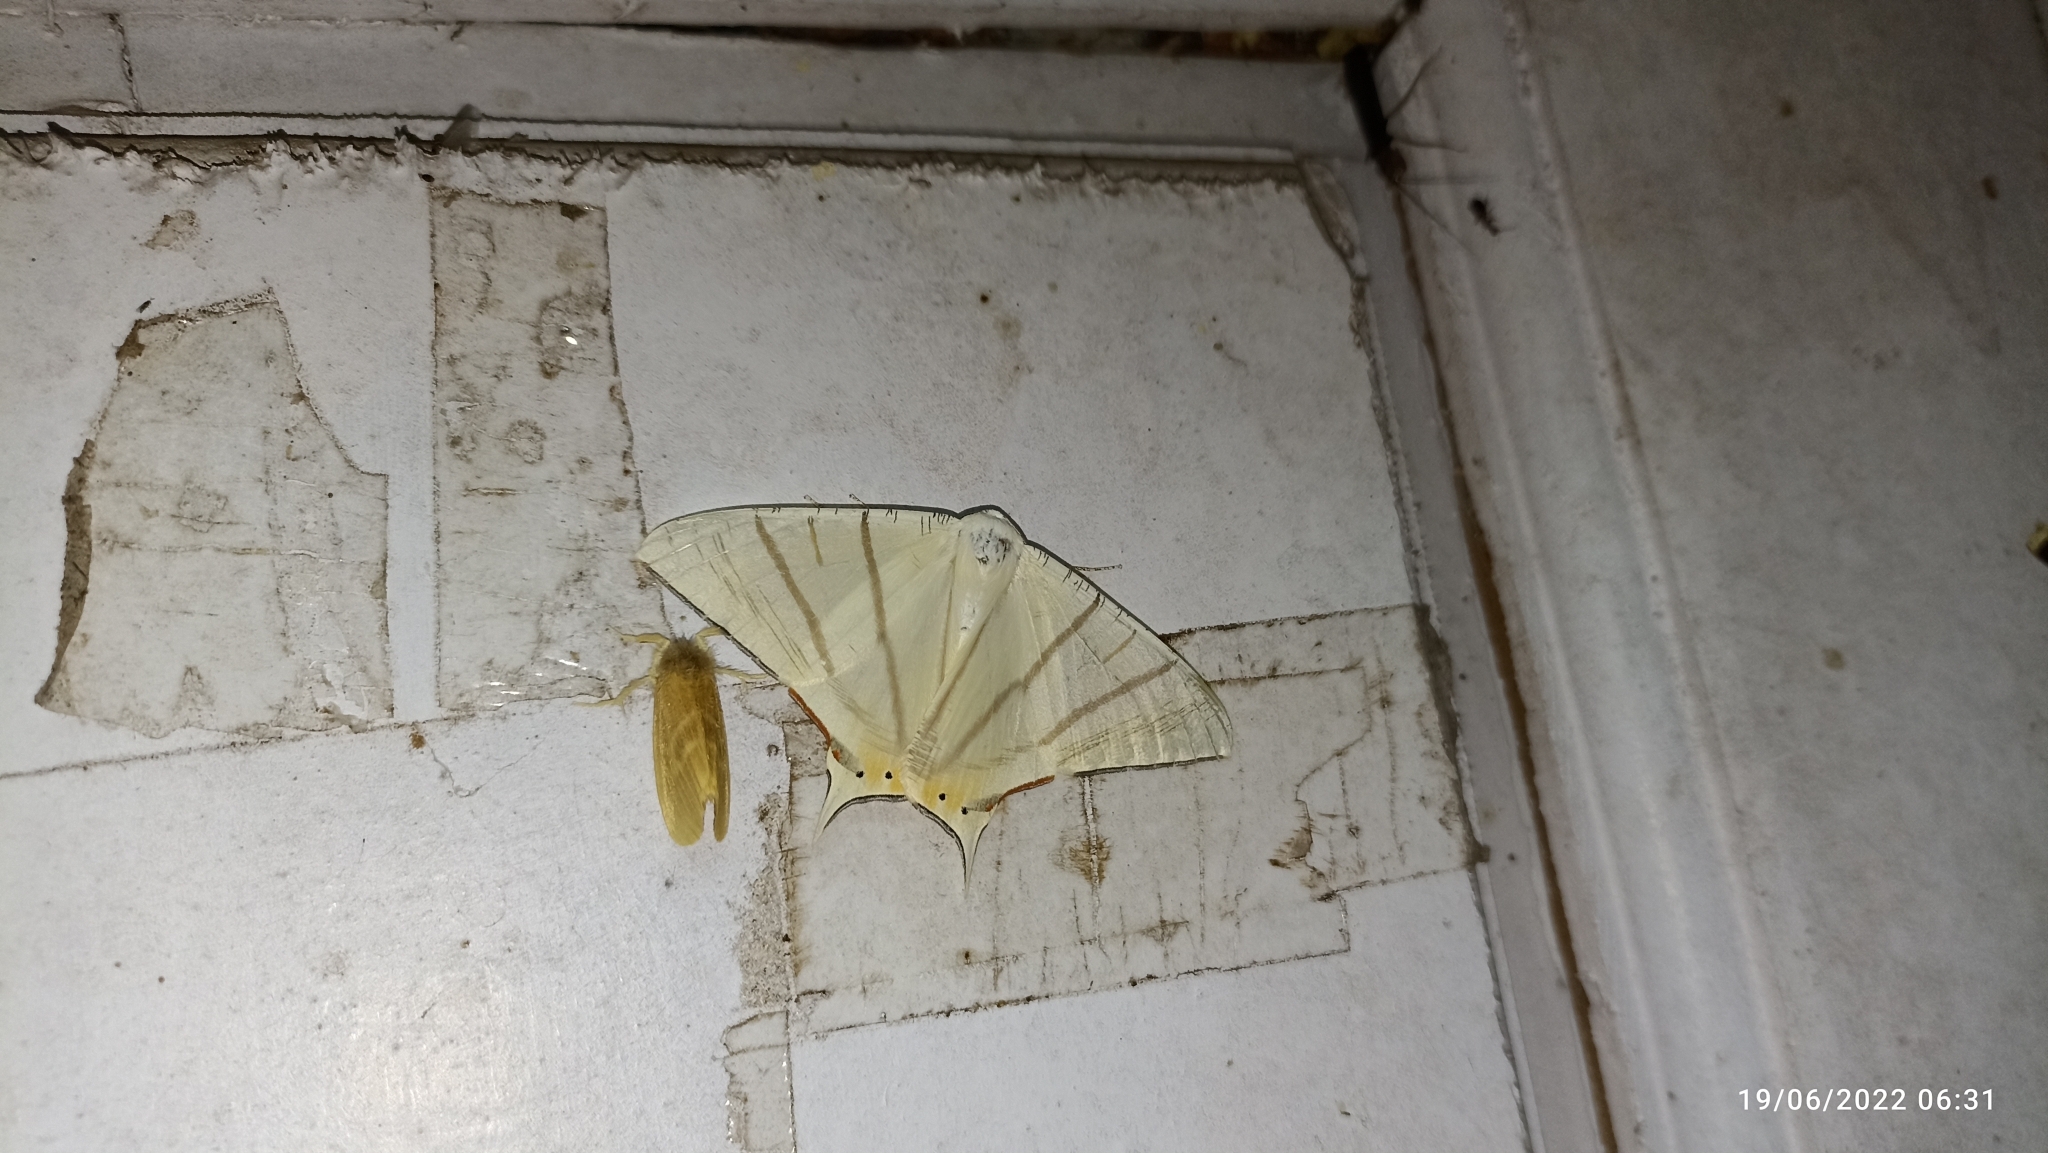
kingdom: Animalia
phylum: Arthropoda
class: Insecta
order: Lepidoptera
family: Geometridae
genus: Ourapteryx
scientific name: Ourapteryx marginata
